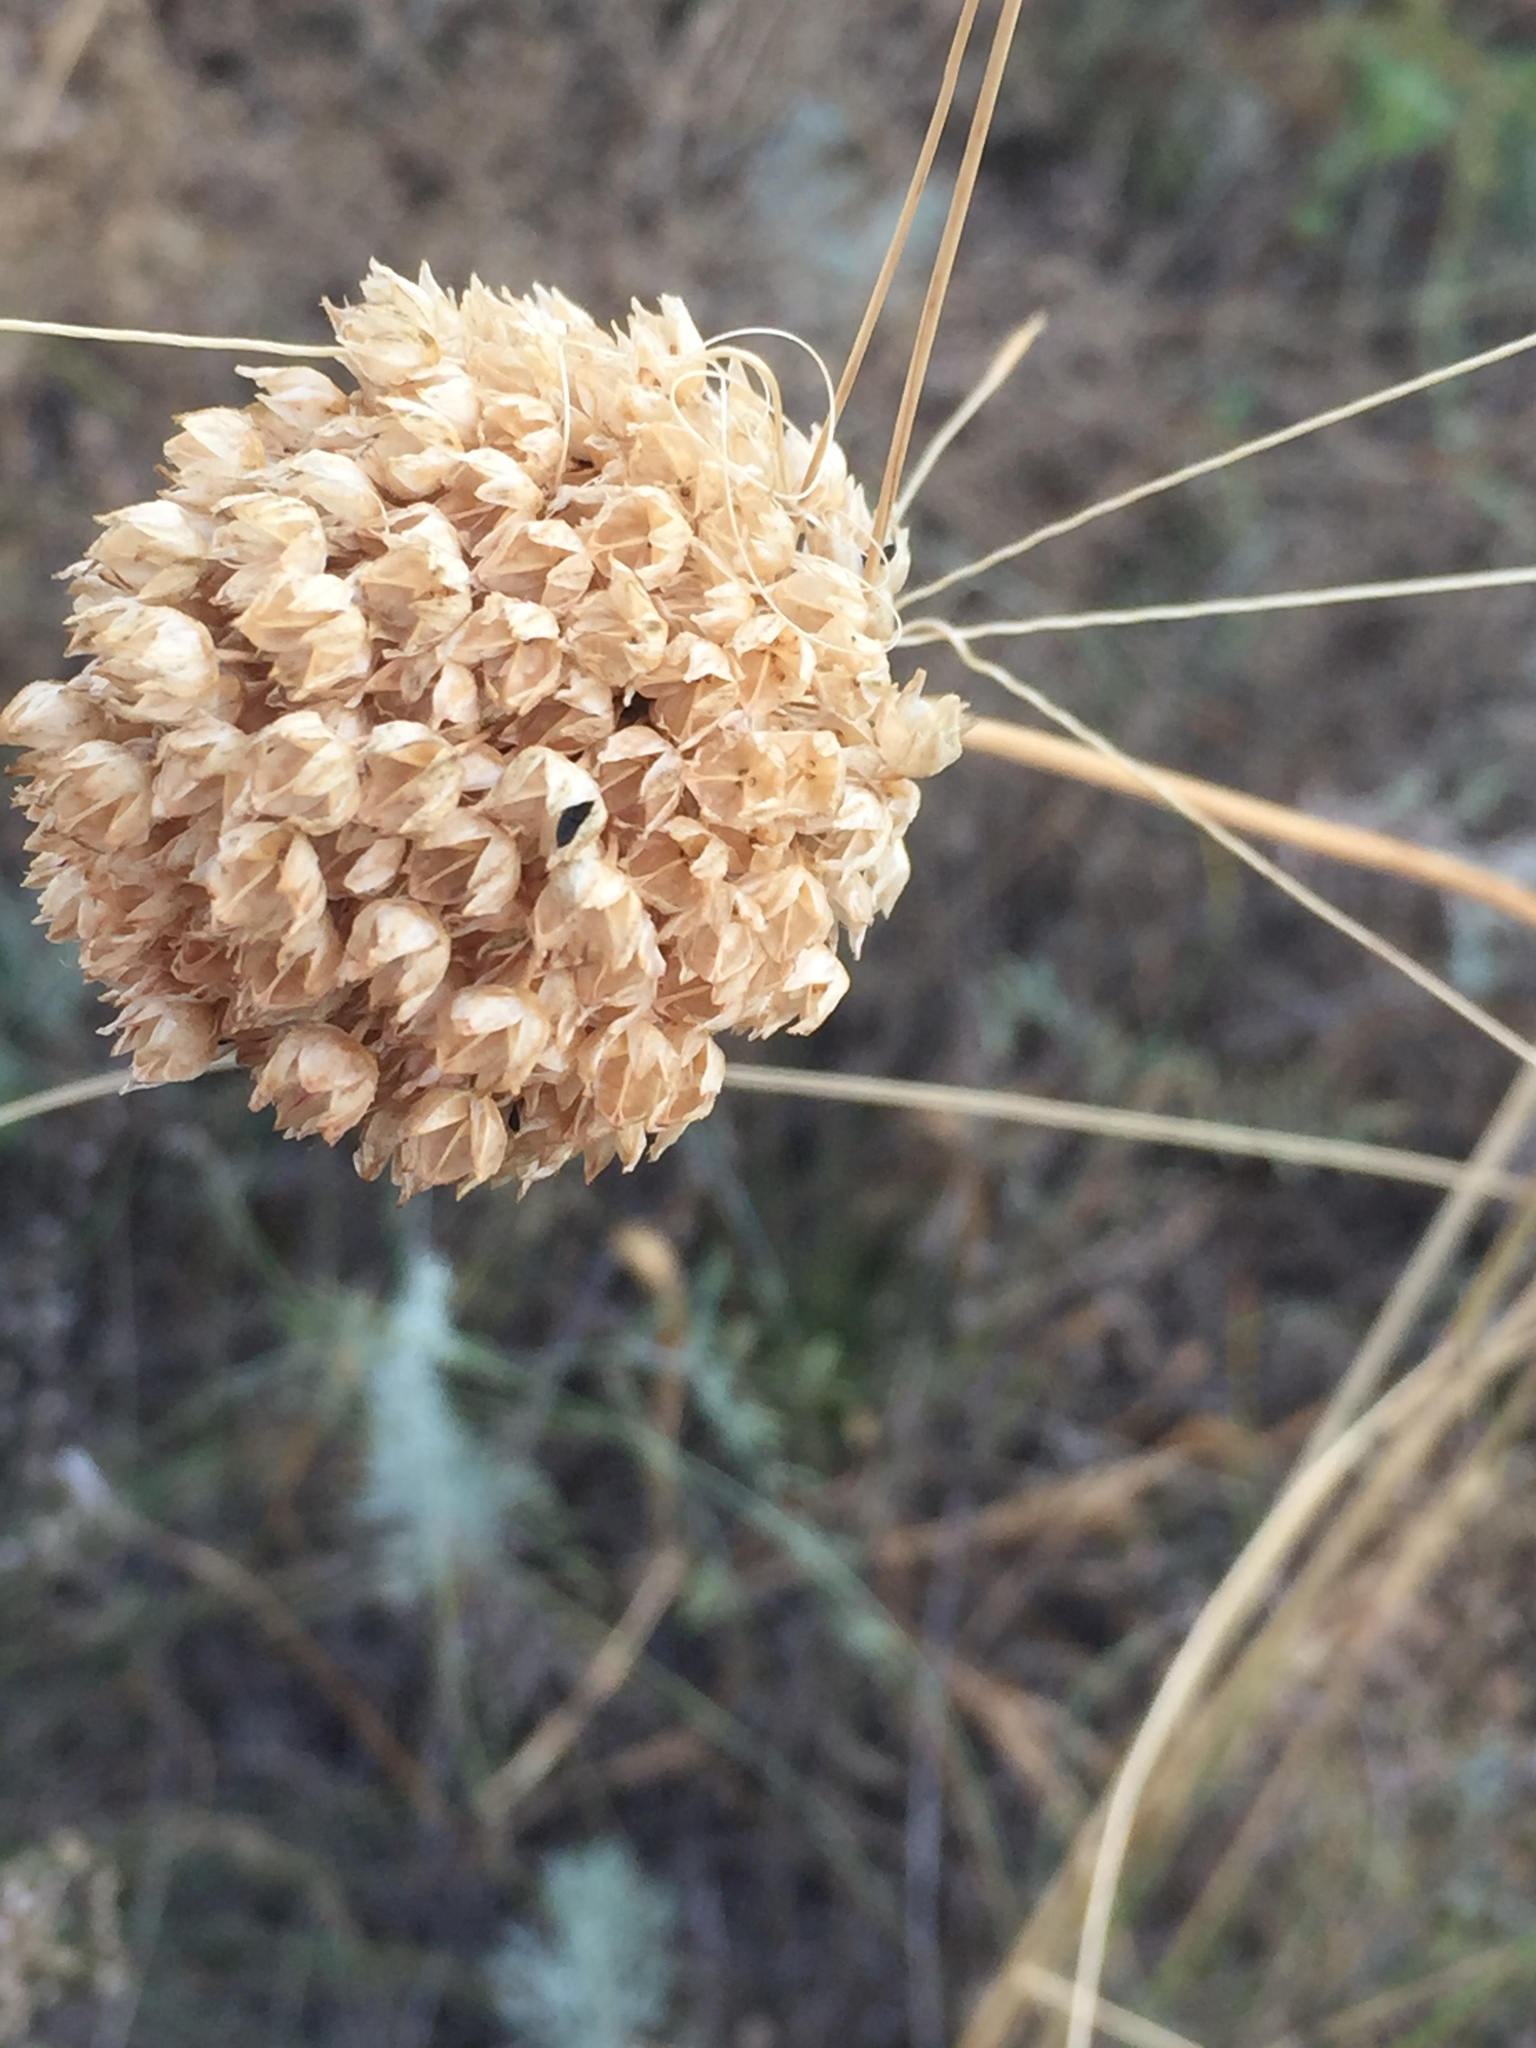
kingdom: Plantae
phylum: Tracheophyta
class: Liliopsida
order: Asparagales
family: Amaryllidaceae
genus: Allium
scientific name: Allium sphaerocephalon
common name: Round-headed leek
